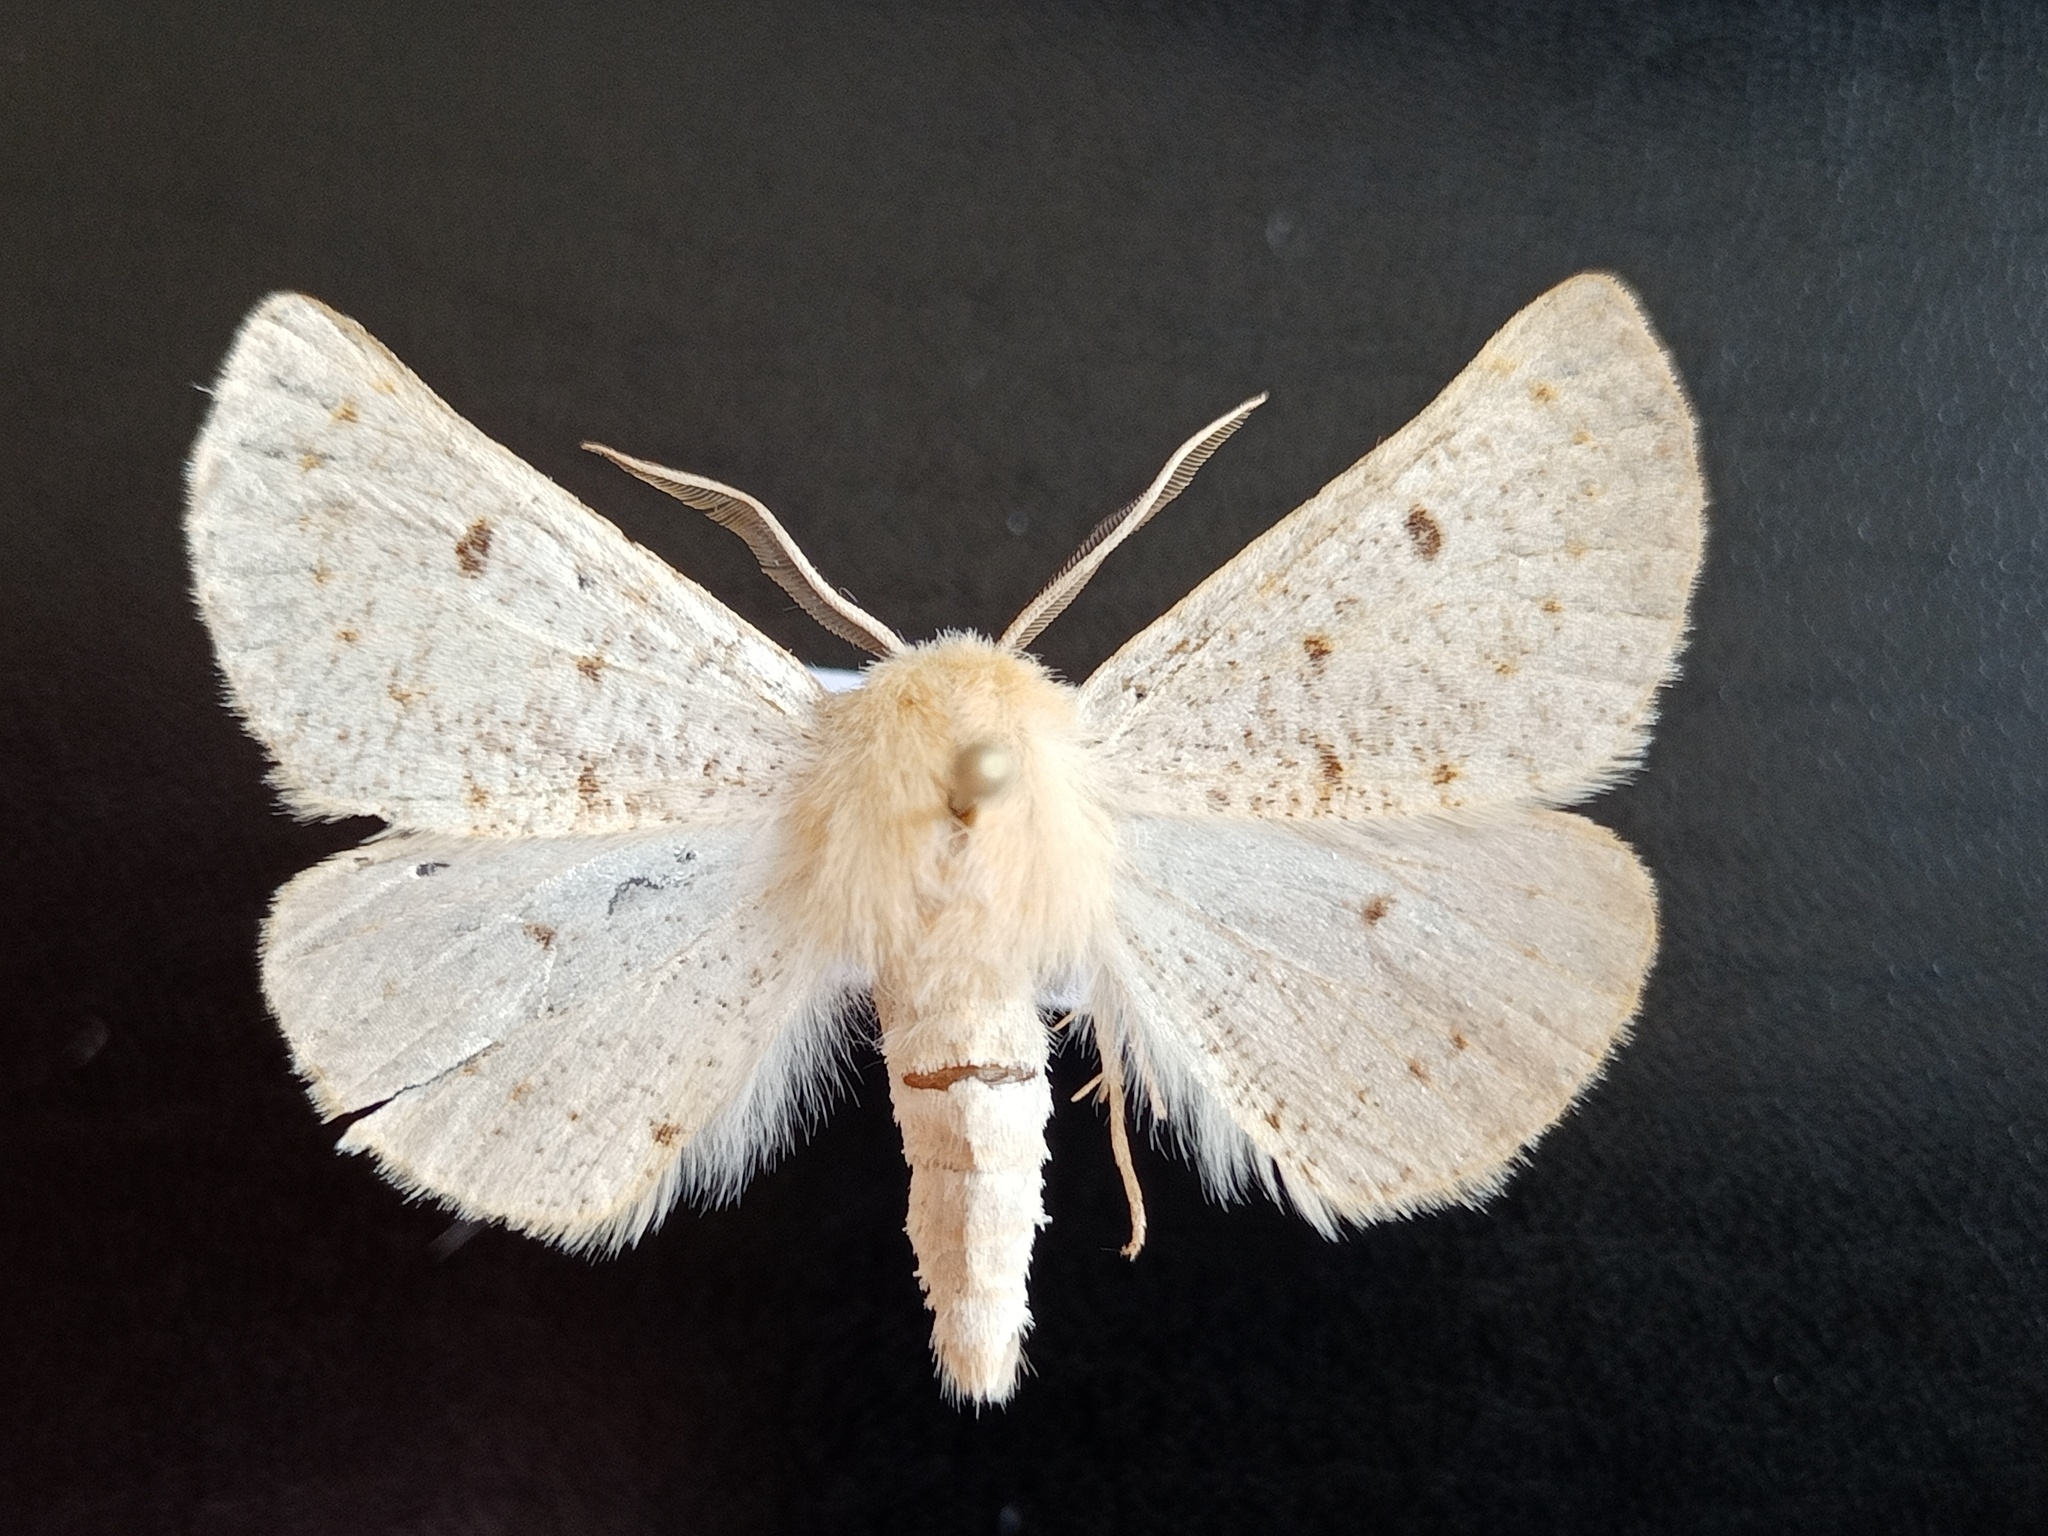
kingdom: Animalia
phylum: Arthropoda
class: Insecta
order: Lepidoptera
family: Geometridae
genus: Dyscia
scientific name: Dyscia lentiscaria
